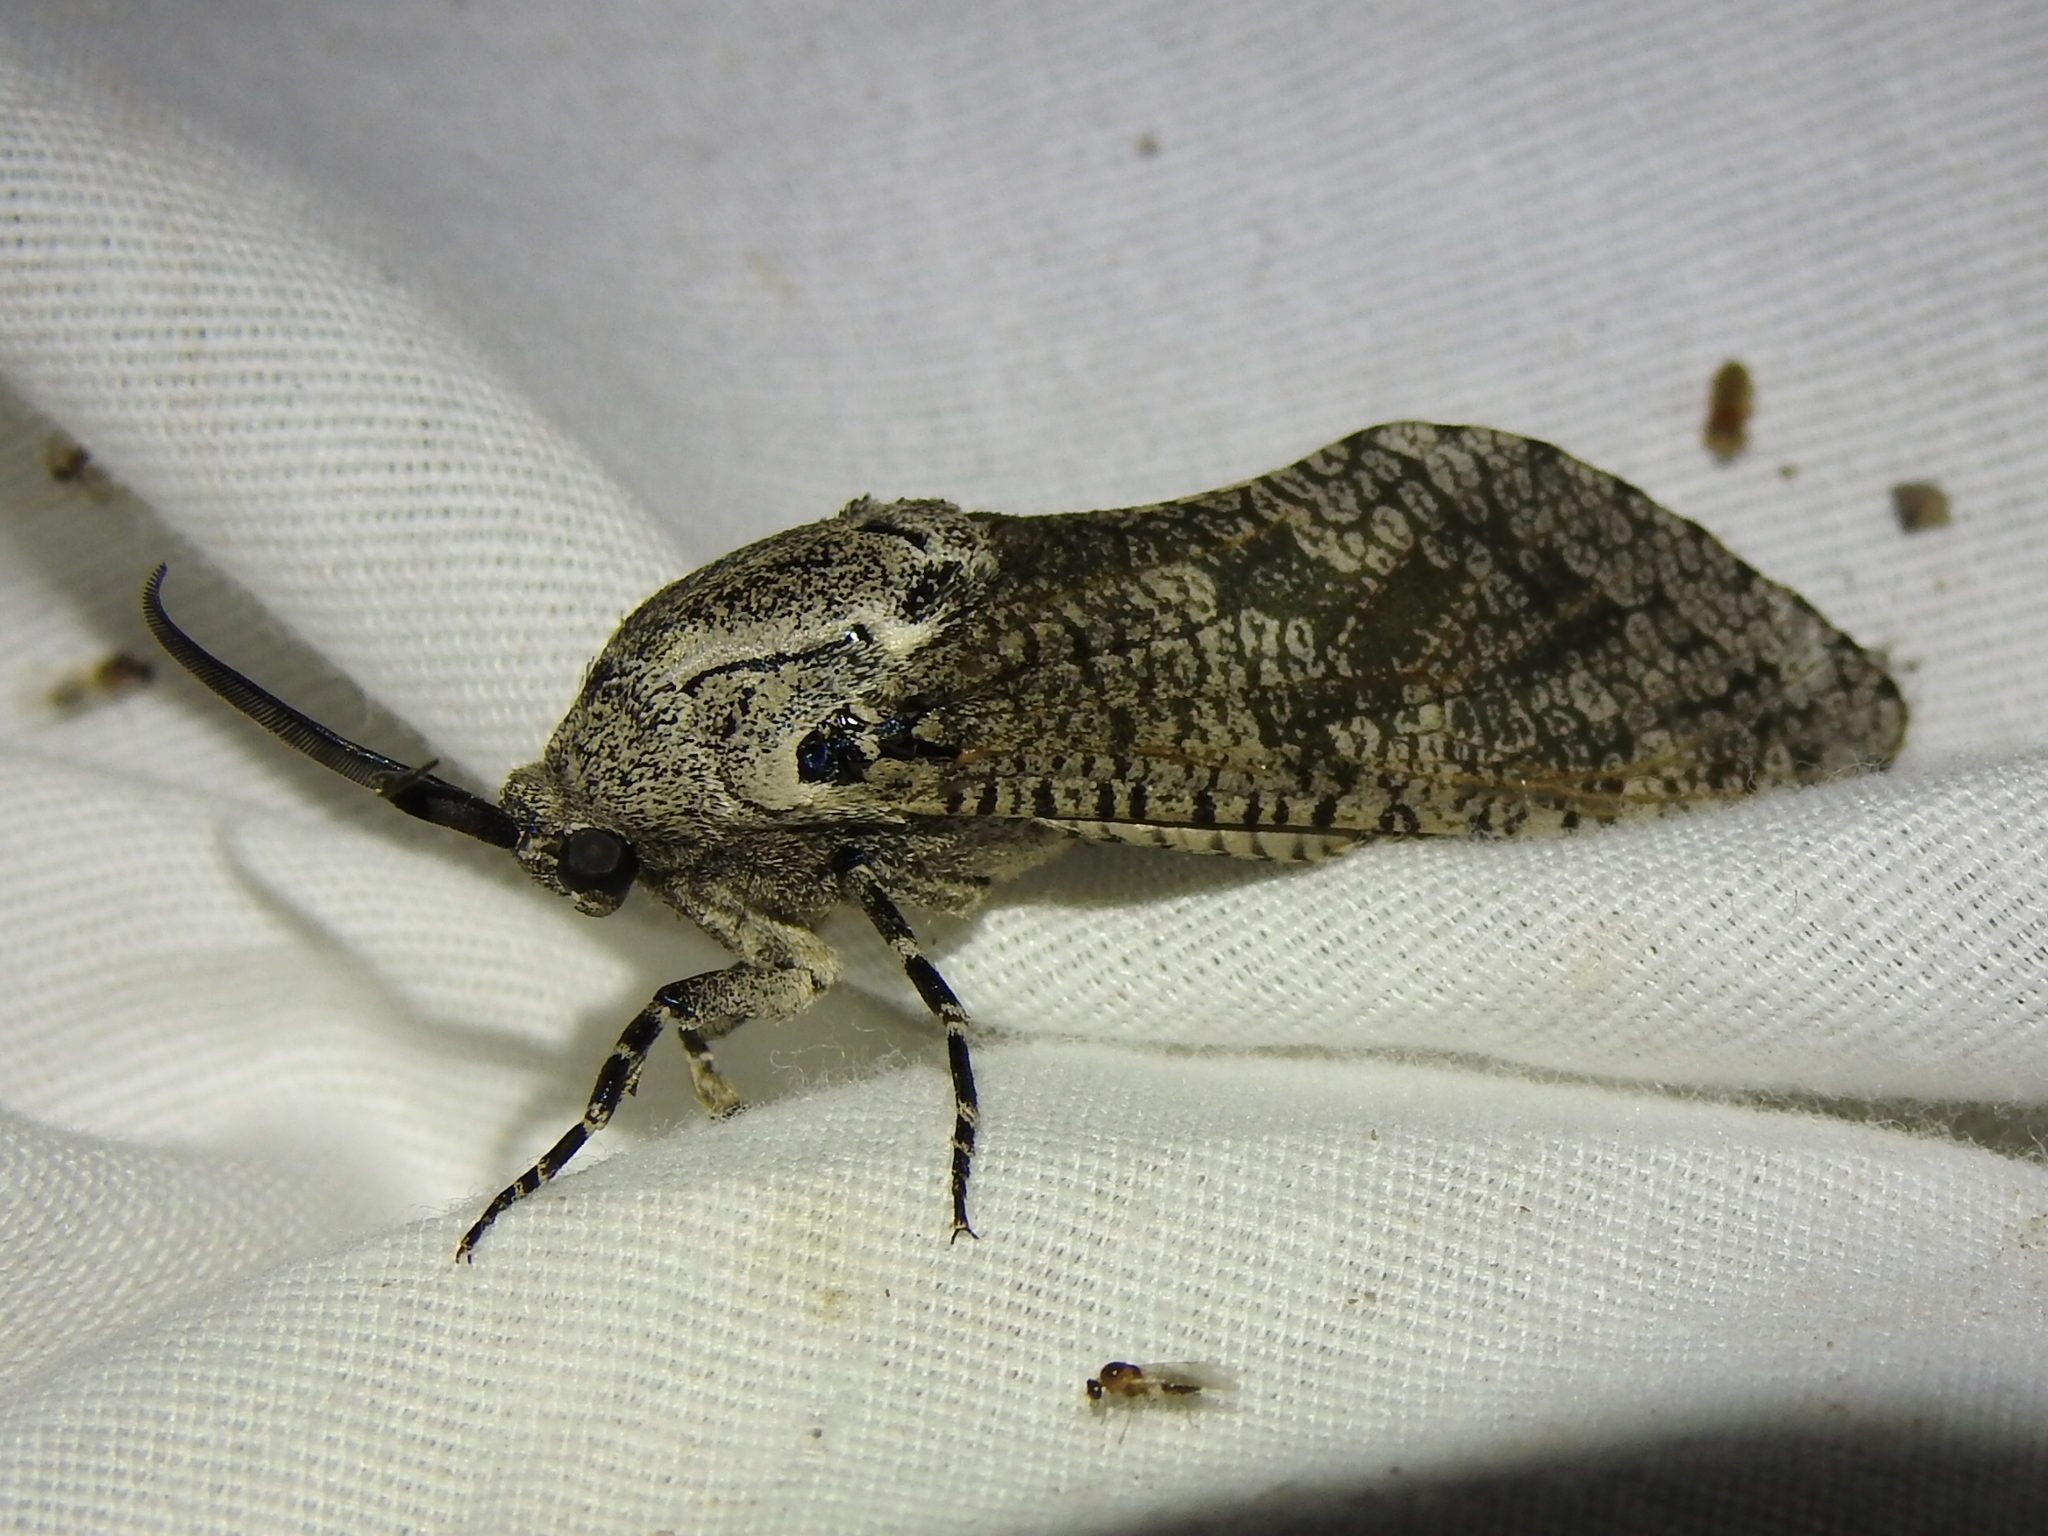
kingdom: Animalia
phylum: Arthropoda
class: Insecta
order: Lepidoptera
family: Cossidae
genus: Prionoxystus
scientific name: Prionoxystus robiniae
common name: Carpenterworm
